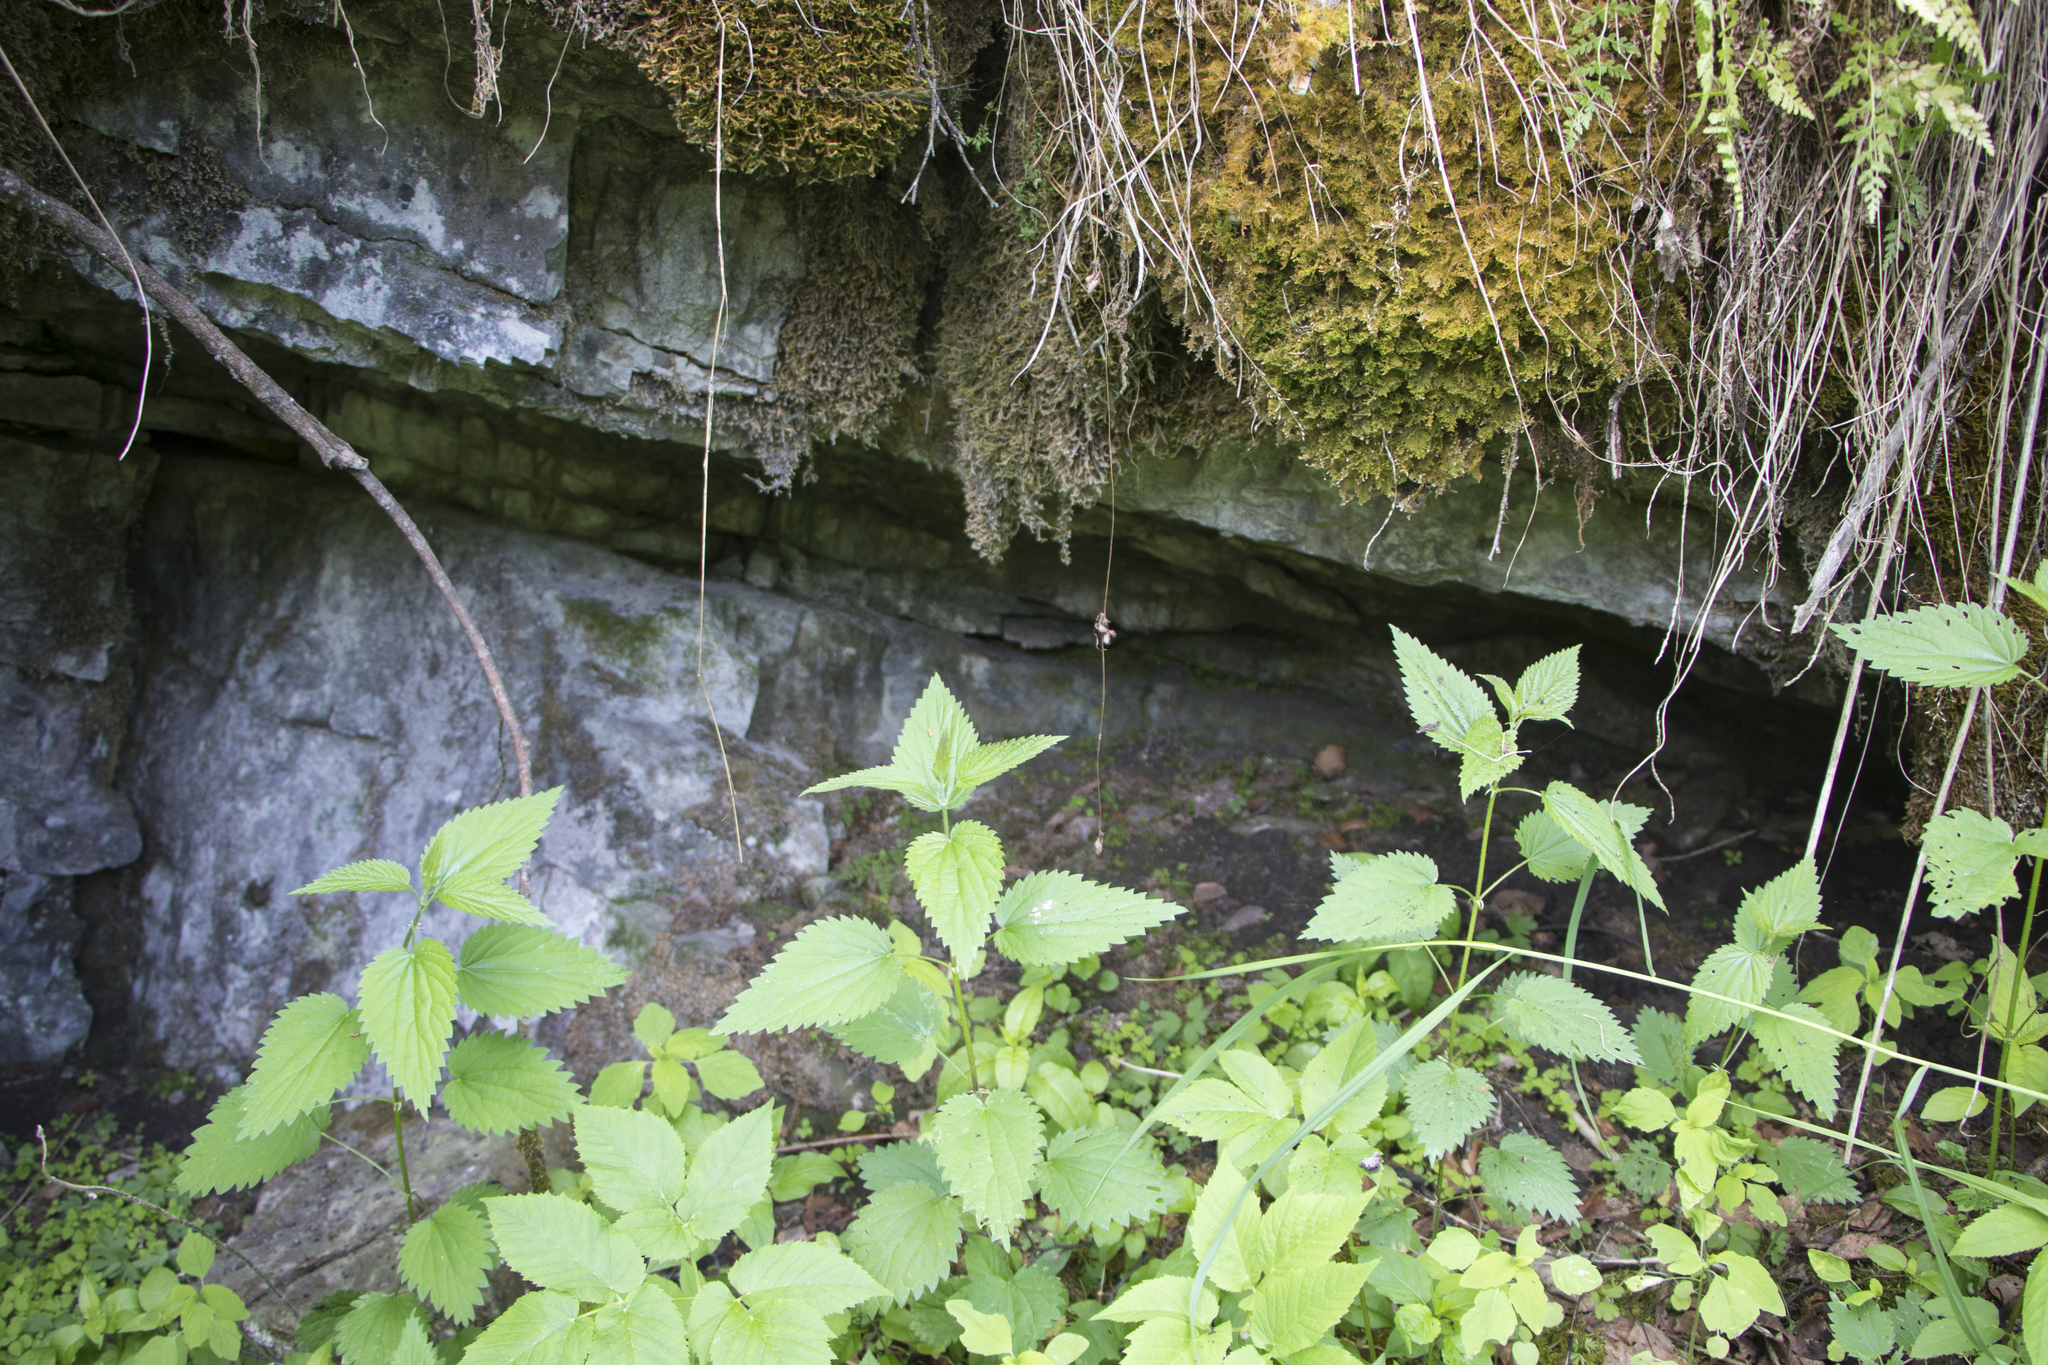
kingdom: Plantae
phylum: Tracheophyta
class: Magnoliopsida
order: Rosales
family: Urticaceae
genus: Urtica
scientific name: Urtica dioica
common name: Common nettle
